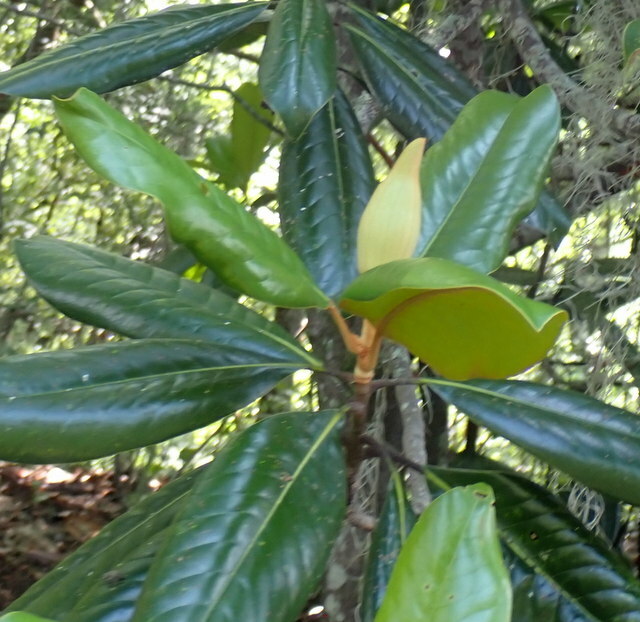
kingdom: Plantae
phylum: Tracheophyta
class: Magnoliopsida
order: Magnoliales
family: Magnoliaceae
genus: Magnolia
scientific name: Magnolia grandiflora
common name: Southern magnolia
